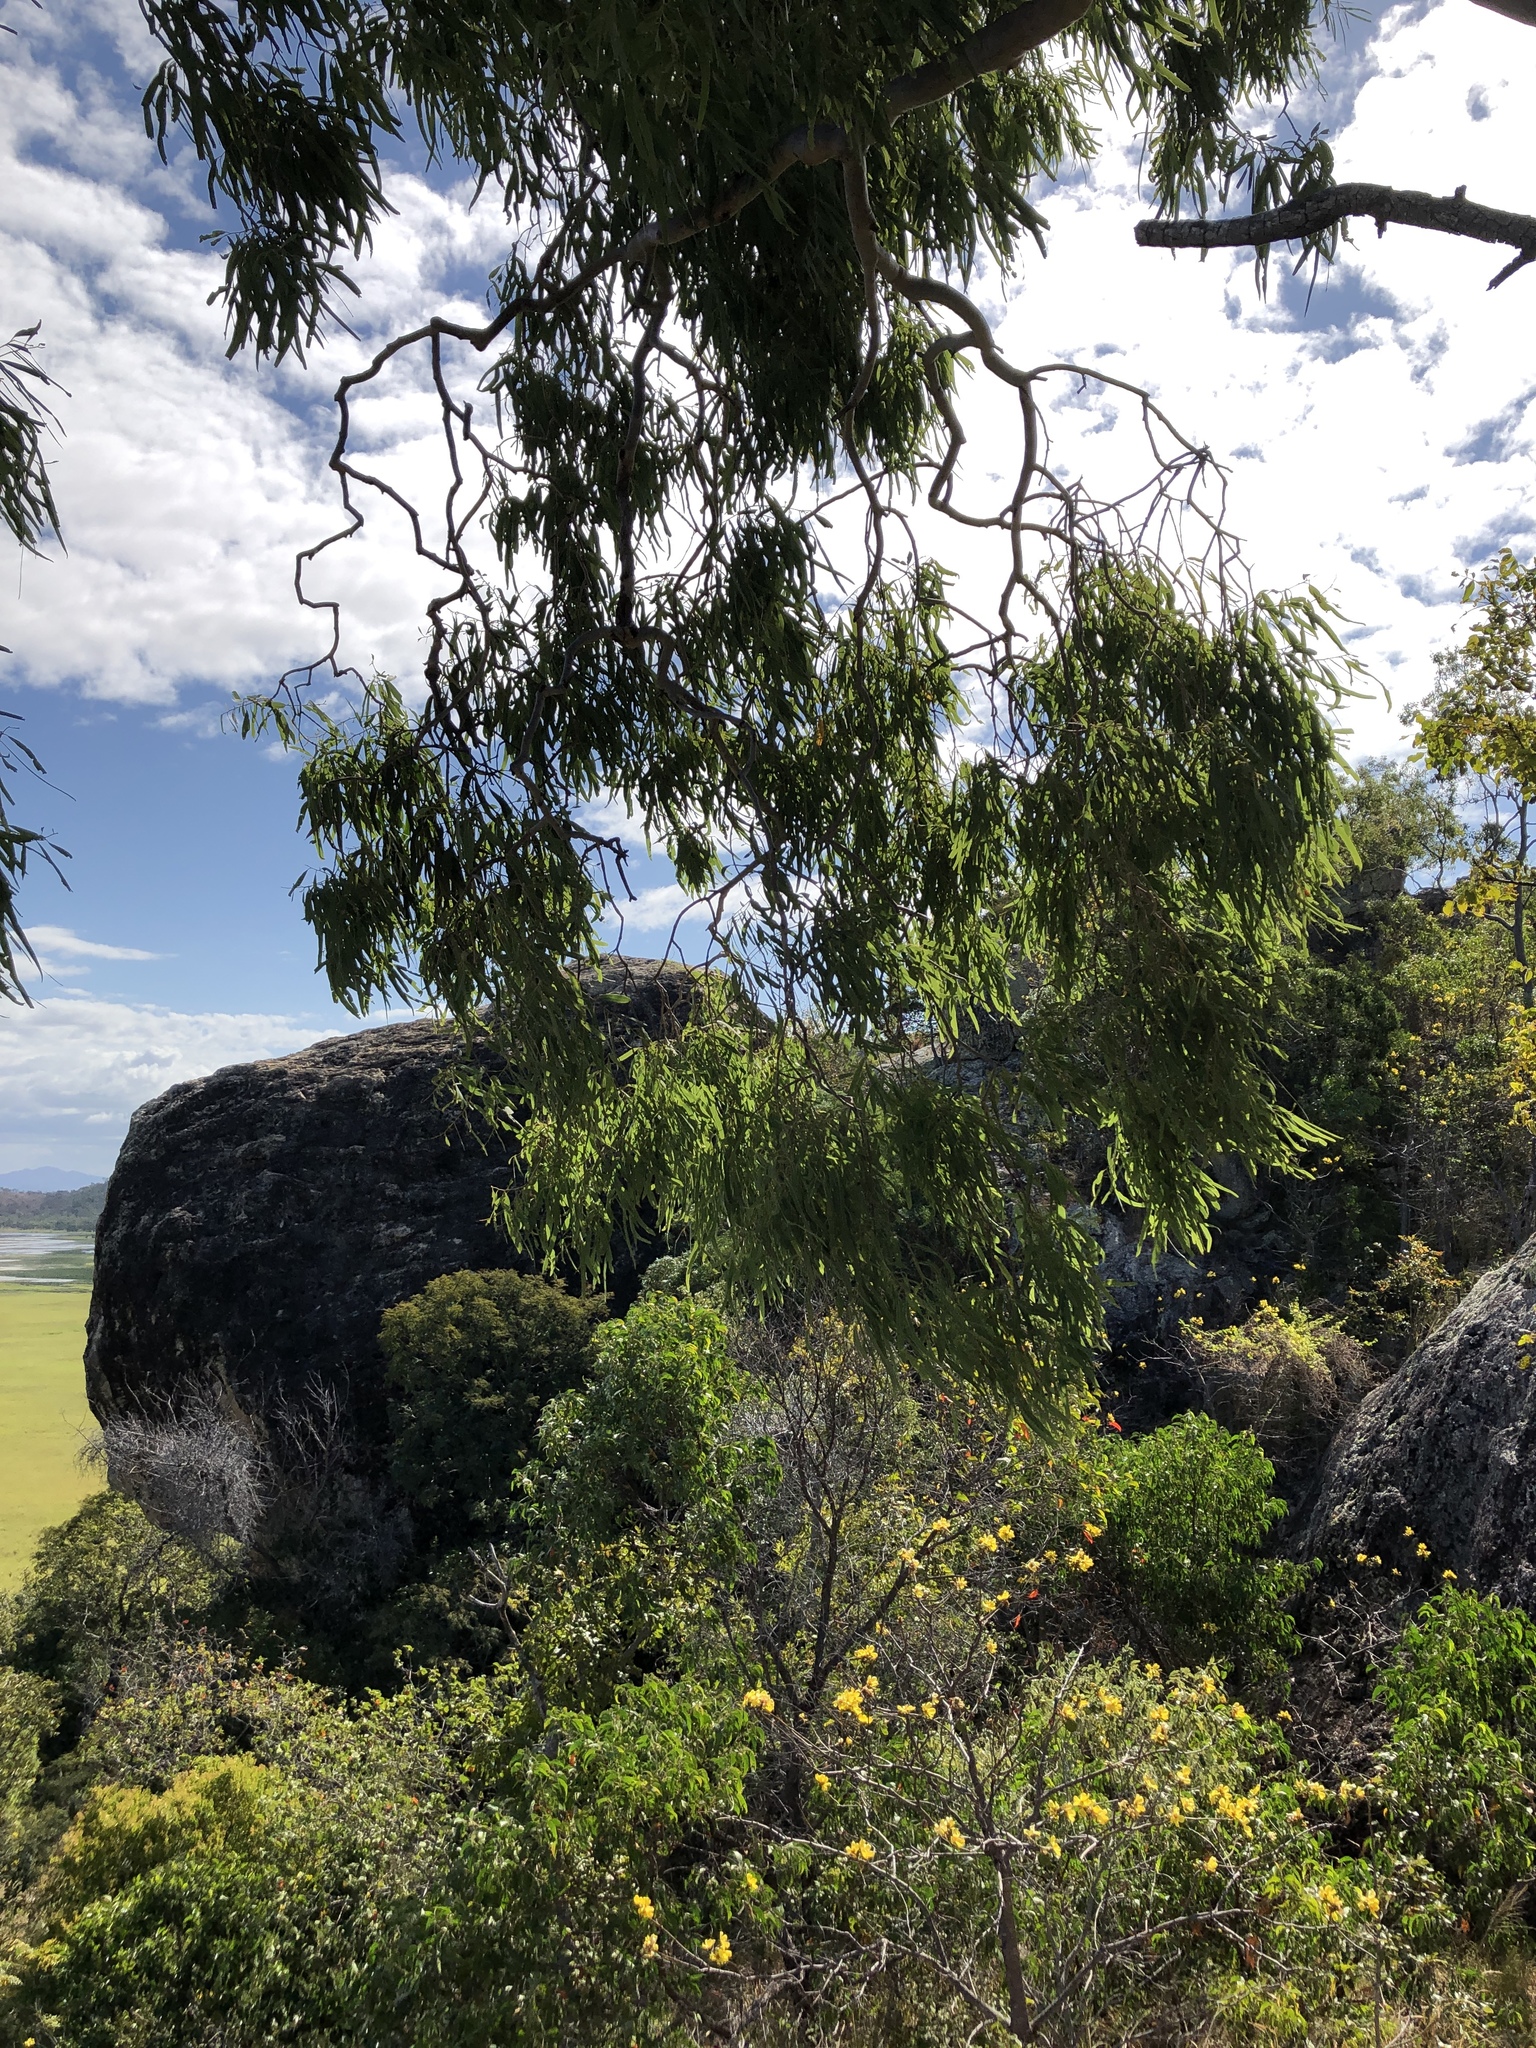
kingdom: Plantae
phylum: Tracheophyta
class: Magnoliopsida
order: Myrtales
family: Myrtaceae
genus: Corymbia
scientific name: Corymbia tessellaris
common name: Carbeen
